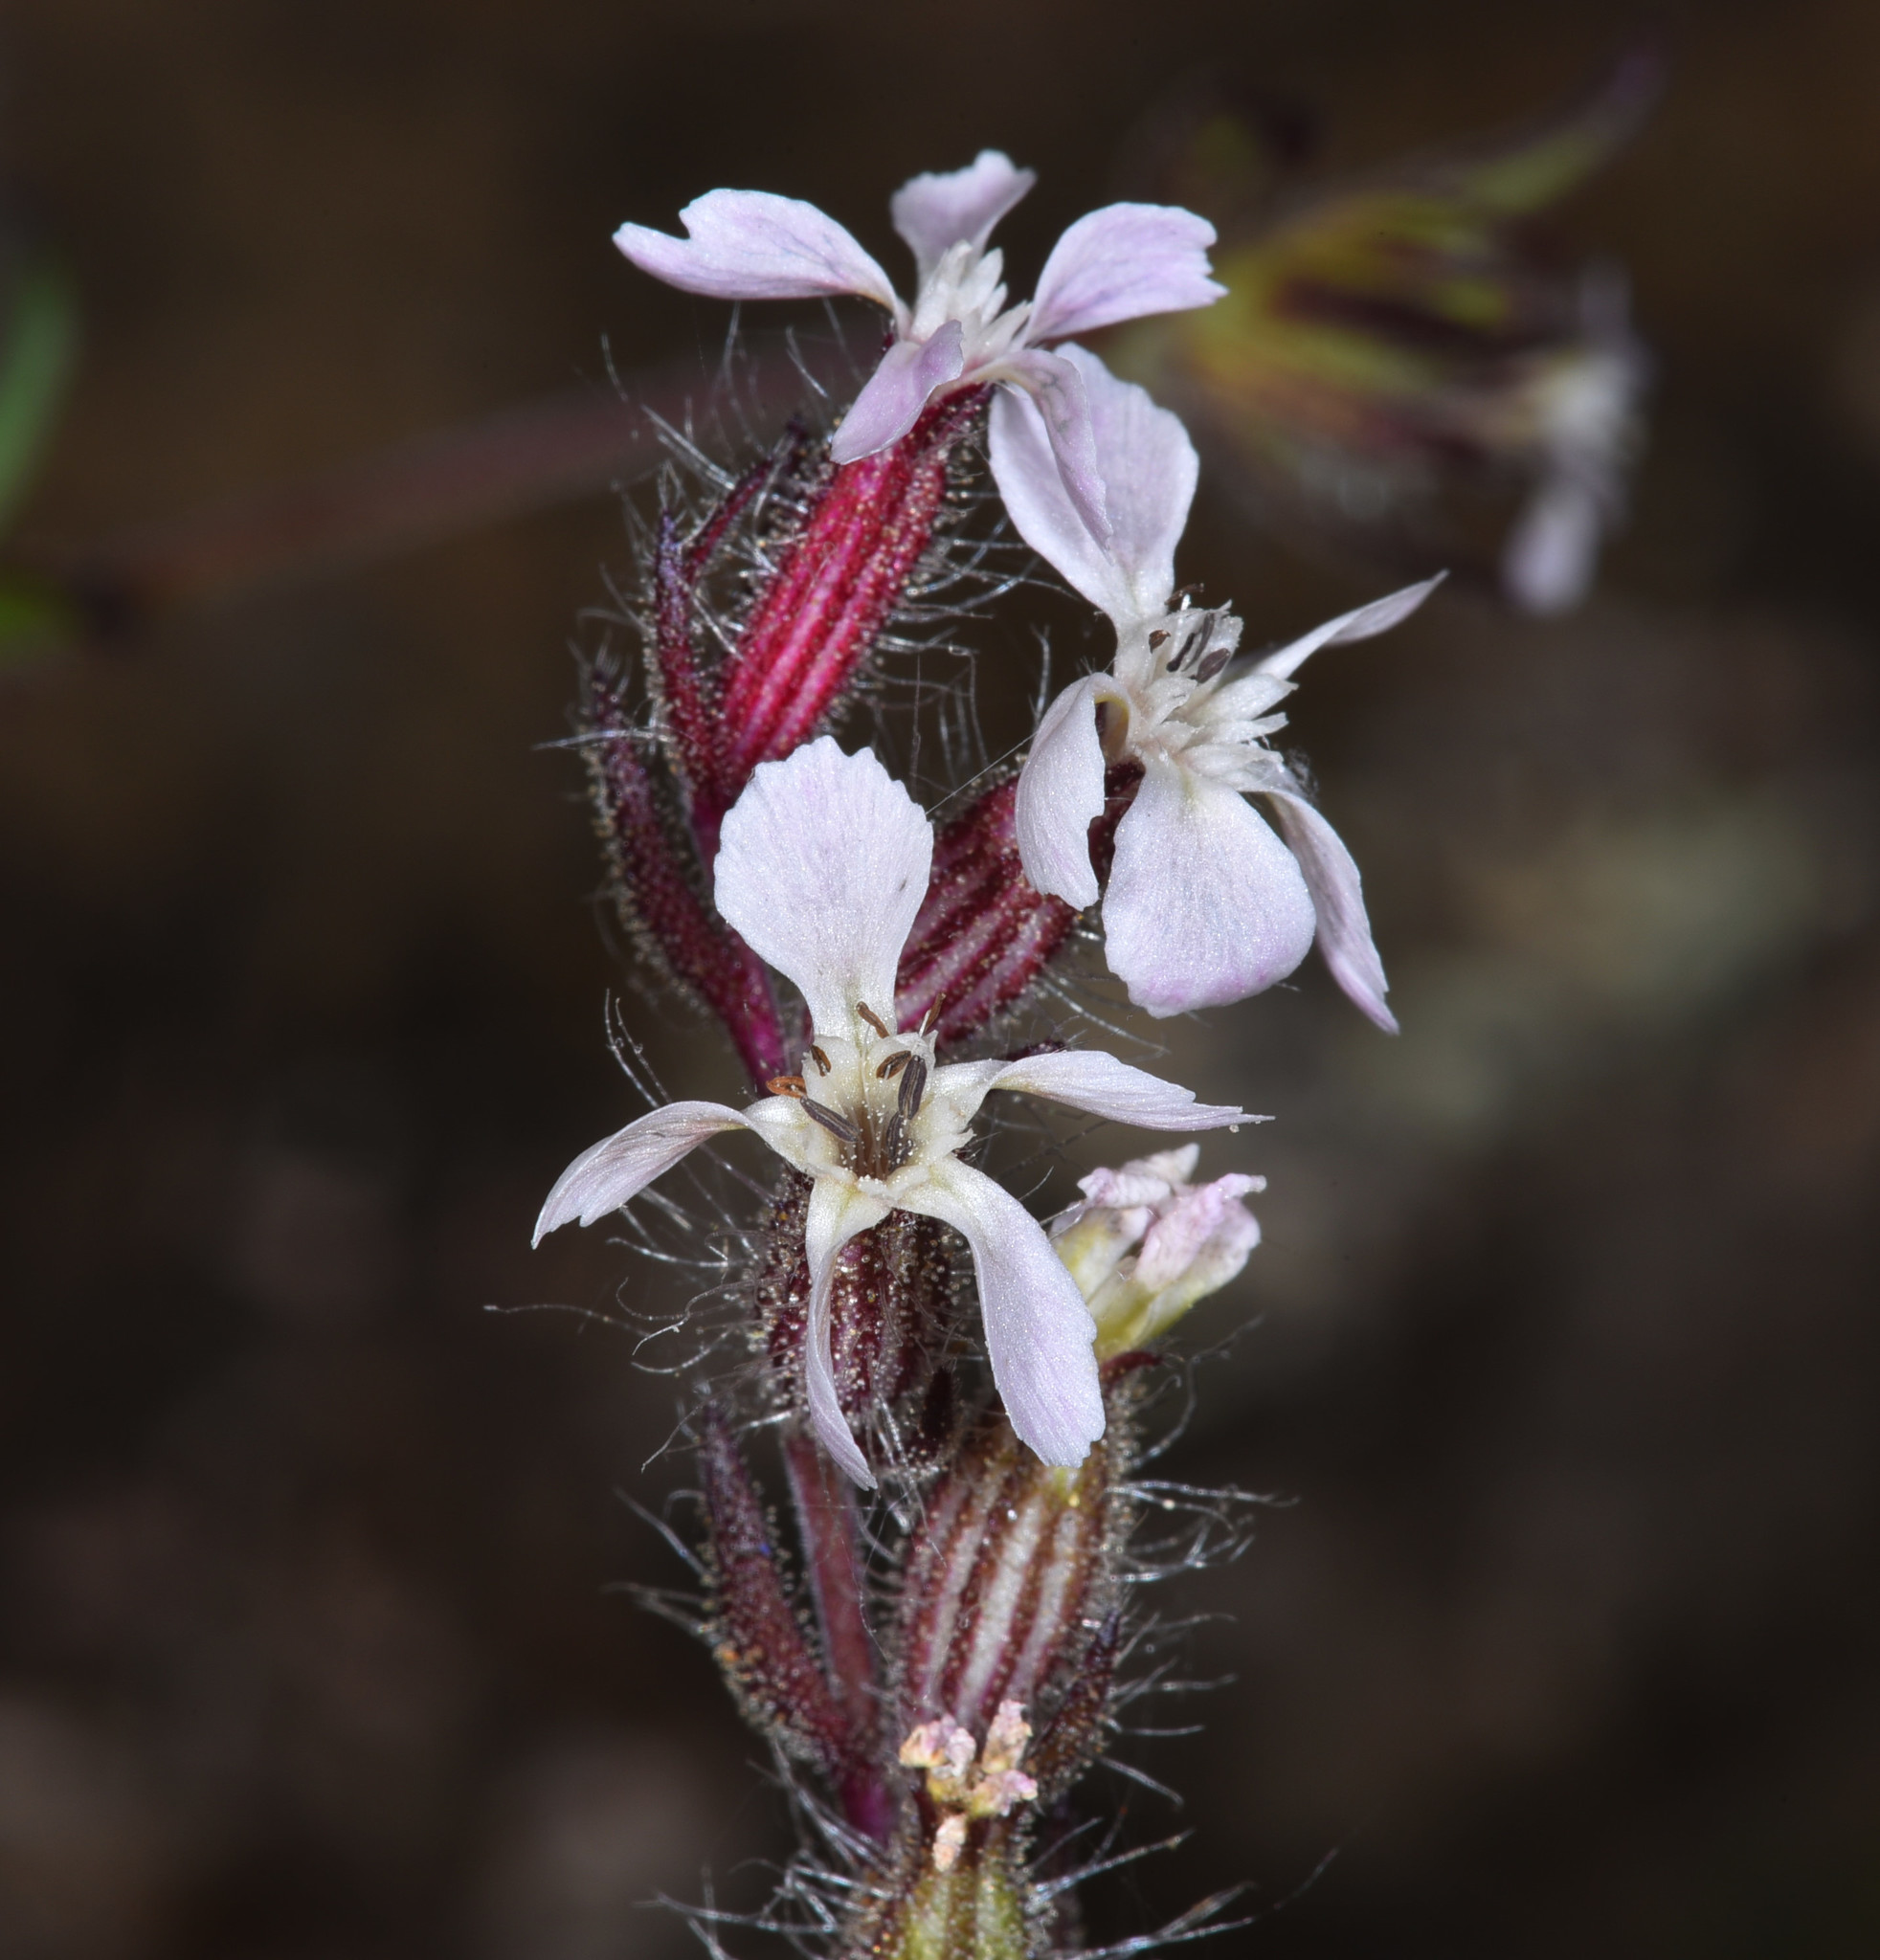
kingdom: Plantae
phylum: Tracheophyta
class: Magnoliopsida
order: Caryophyllales
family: Caryophyllaceae
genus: Silene
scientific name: Silene gallica
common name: Small-flowered catchfly
